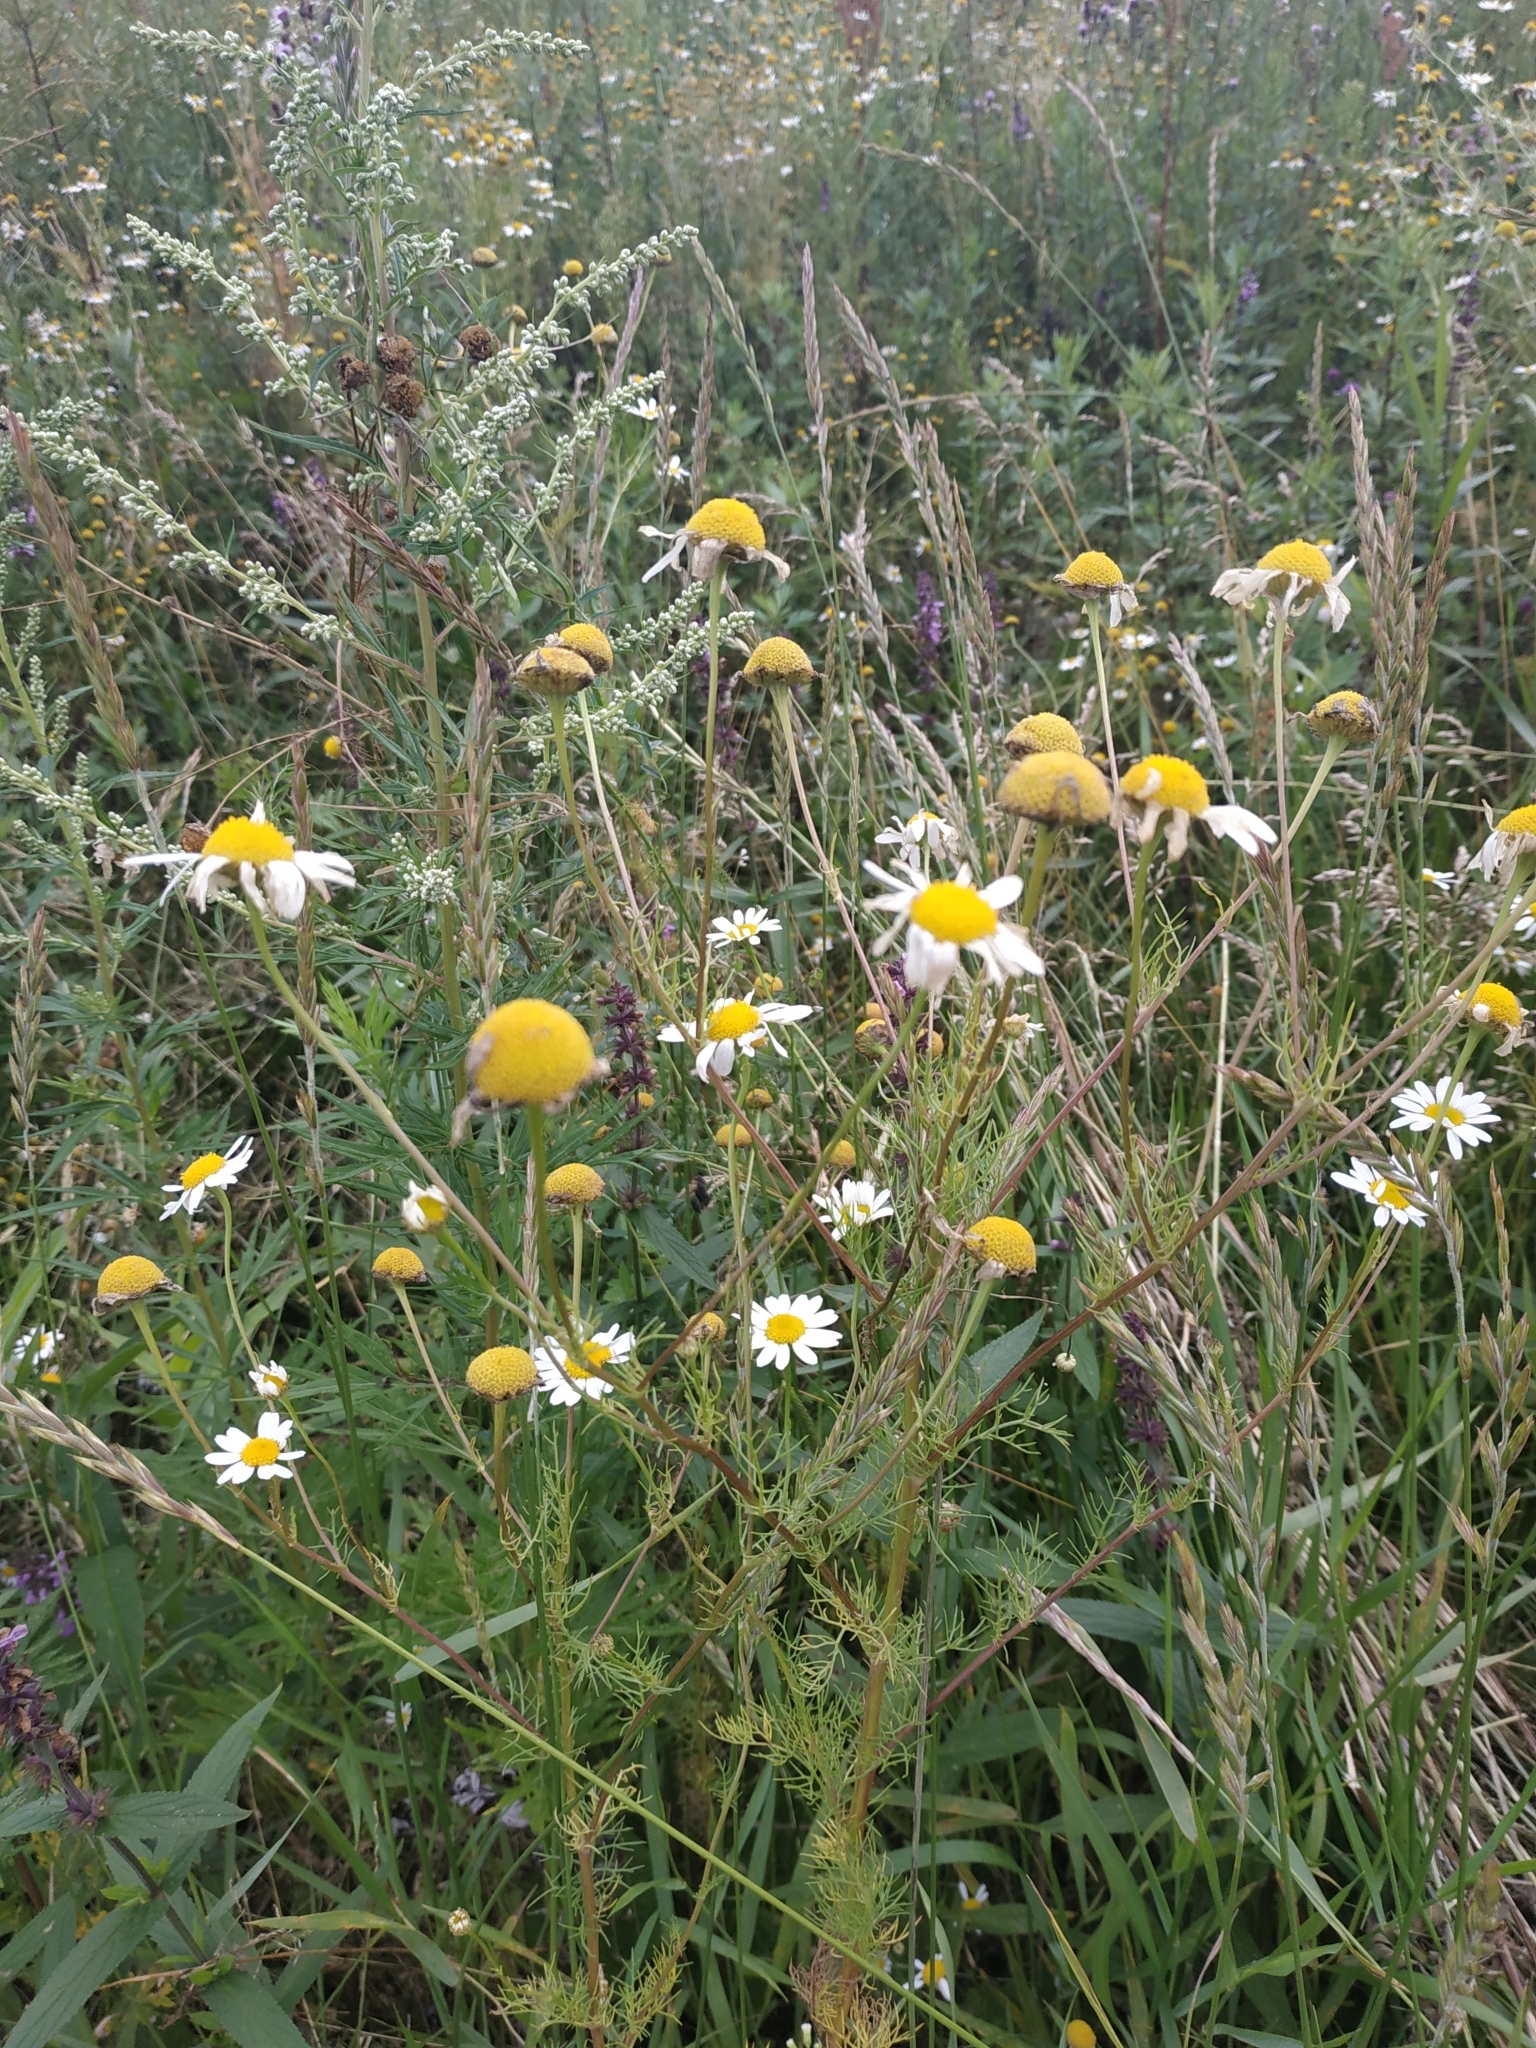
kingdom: Plantae
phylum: Tracheophyta
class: Magnoliopsida
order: Asterales
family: Asteraceae
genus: Tripleurospermum
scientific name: Tripleurospermum inodorum
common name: Scentless mayweed
